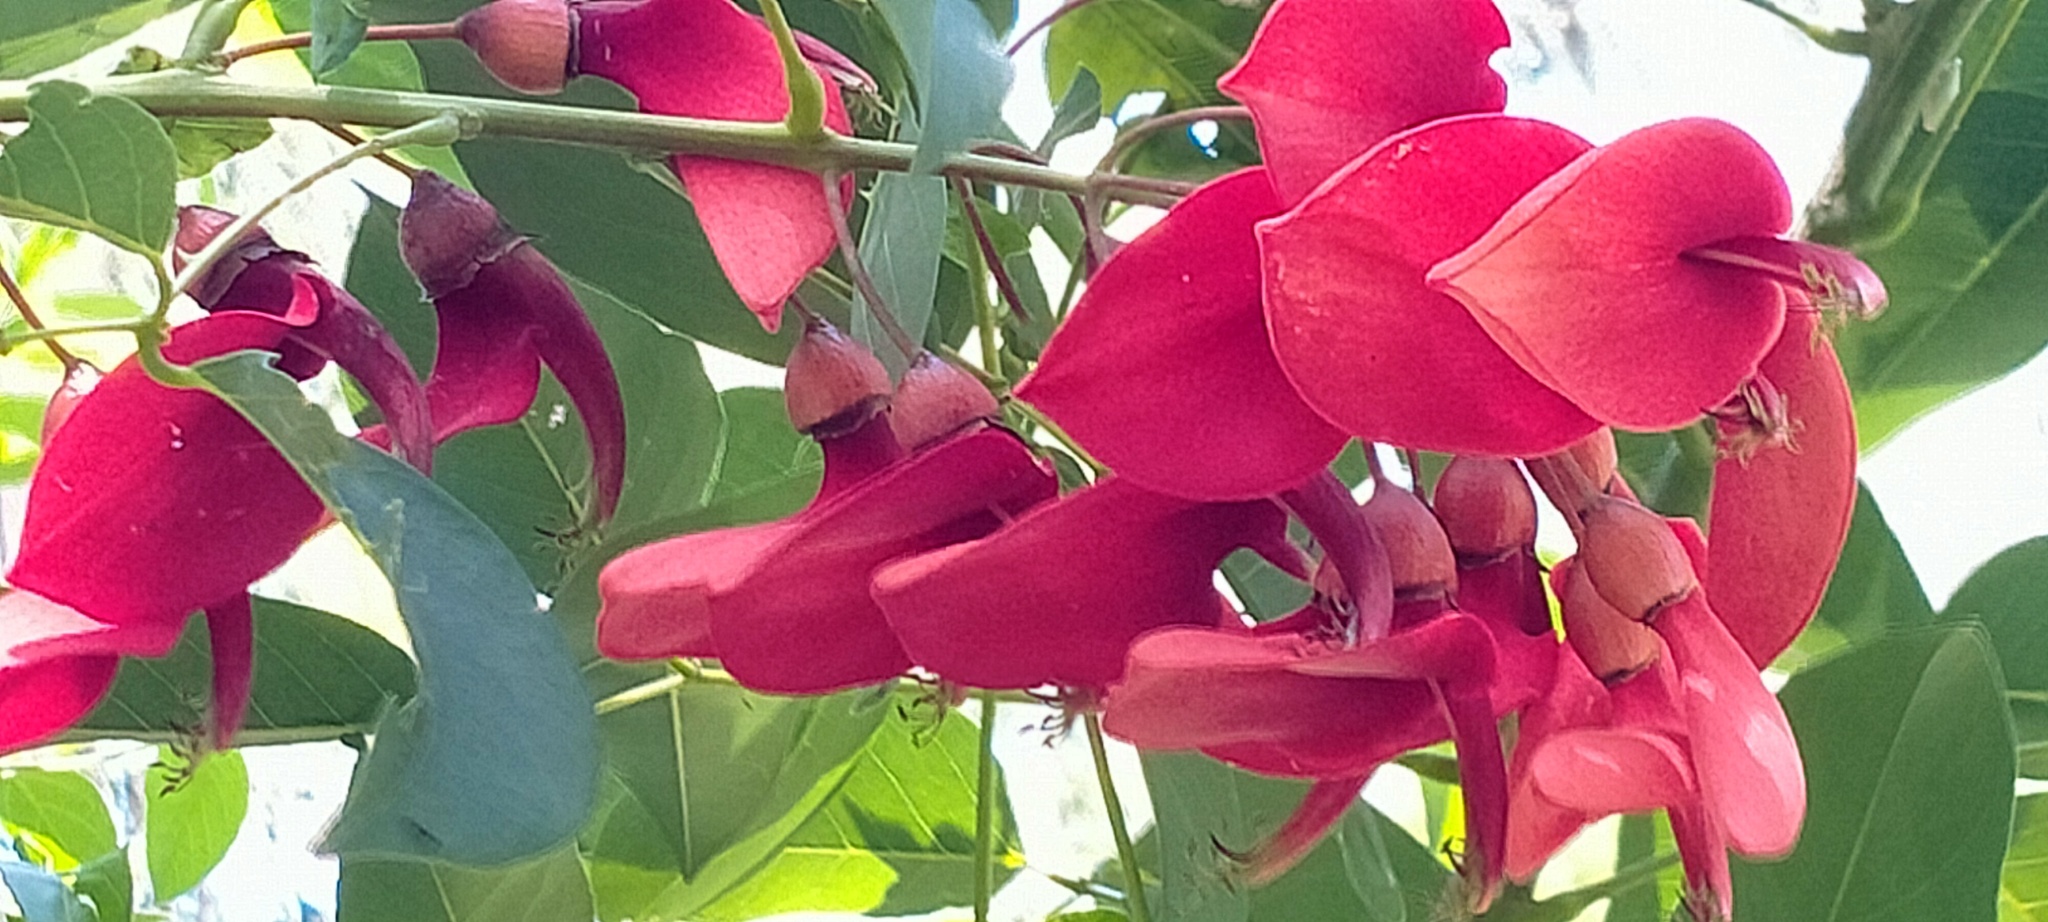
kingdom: Plantae
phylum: Tracheophyta
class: Magnoliopsida
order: Fabales
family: Fabaceae
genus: Erythrina
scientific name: Erythrina crista-galli
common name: Cockspur coral tree
